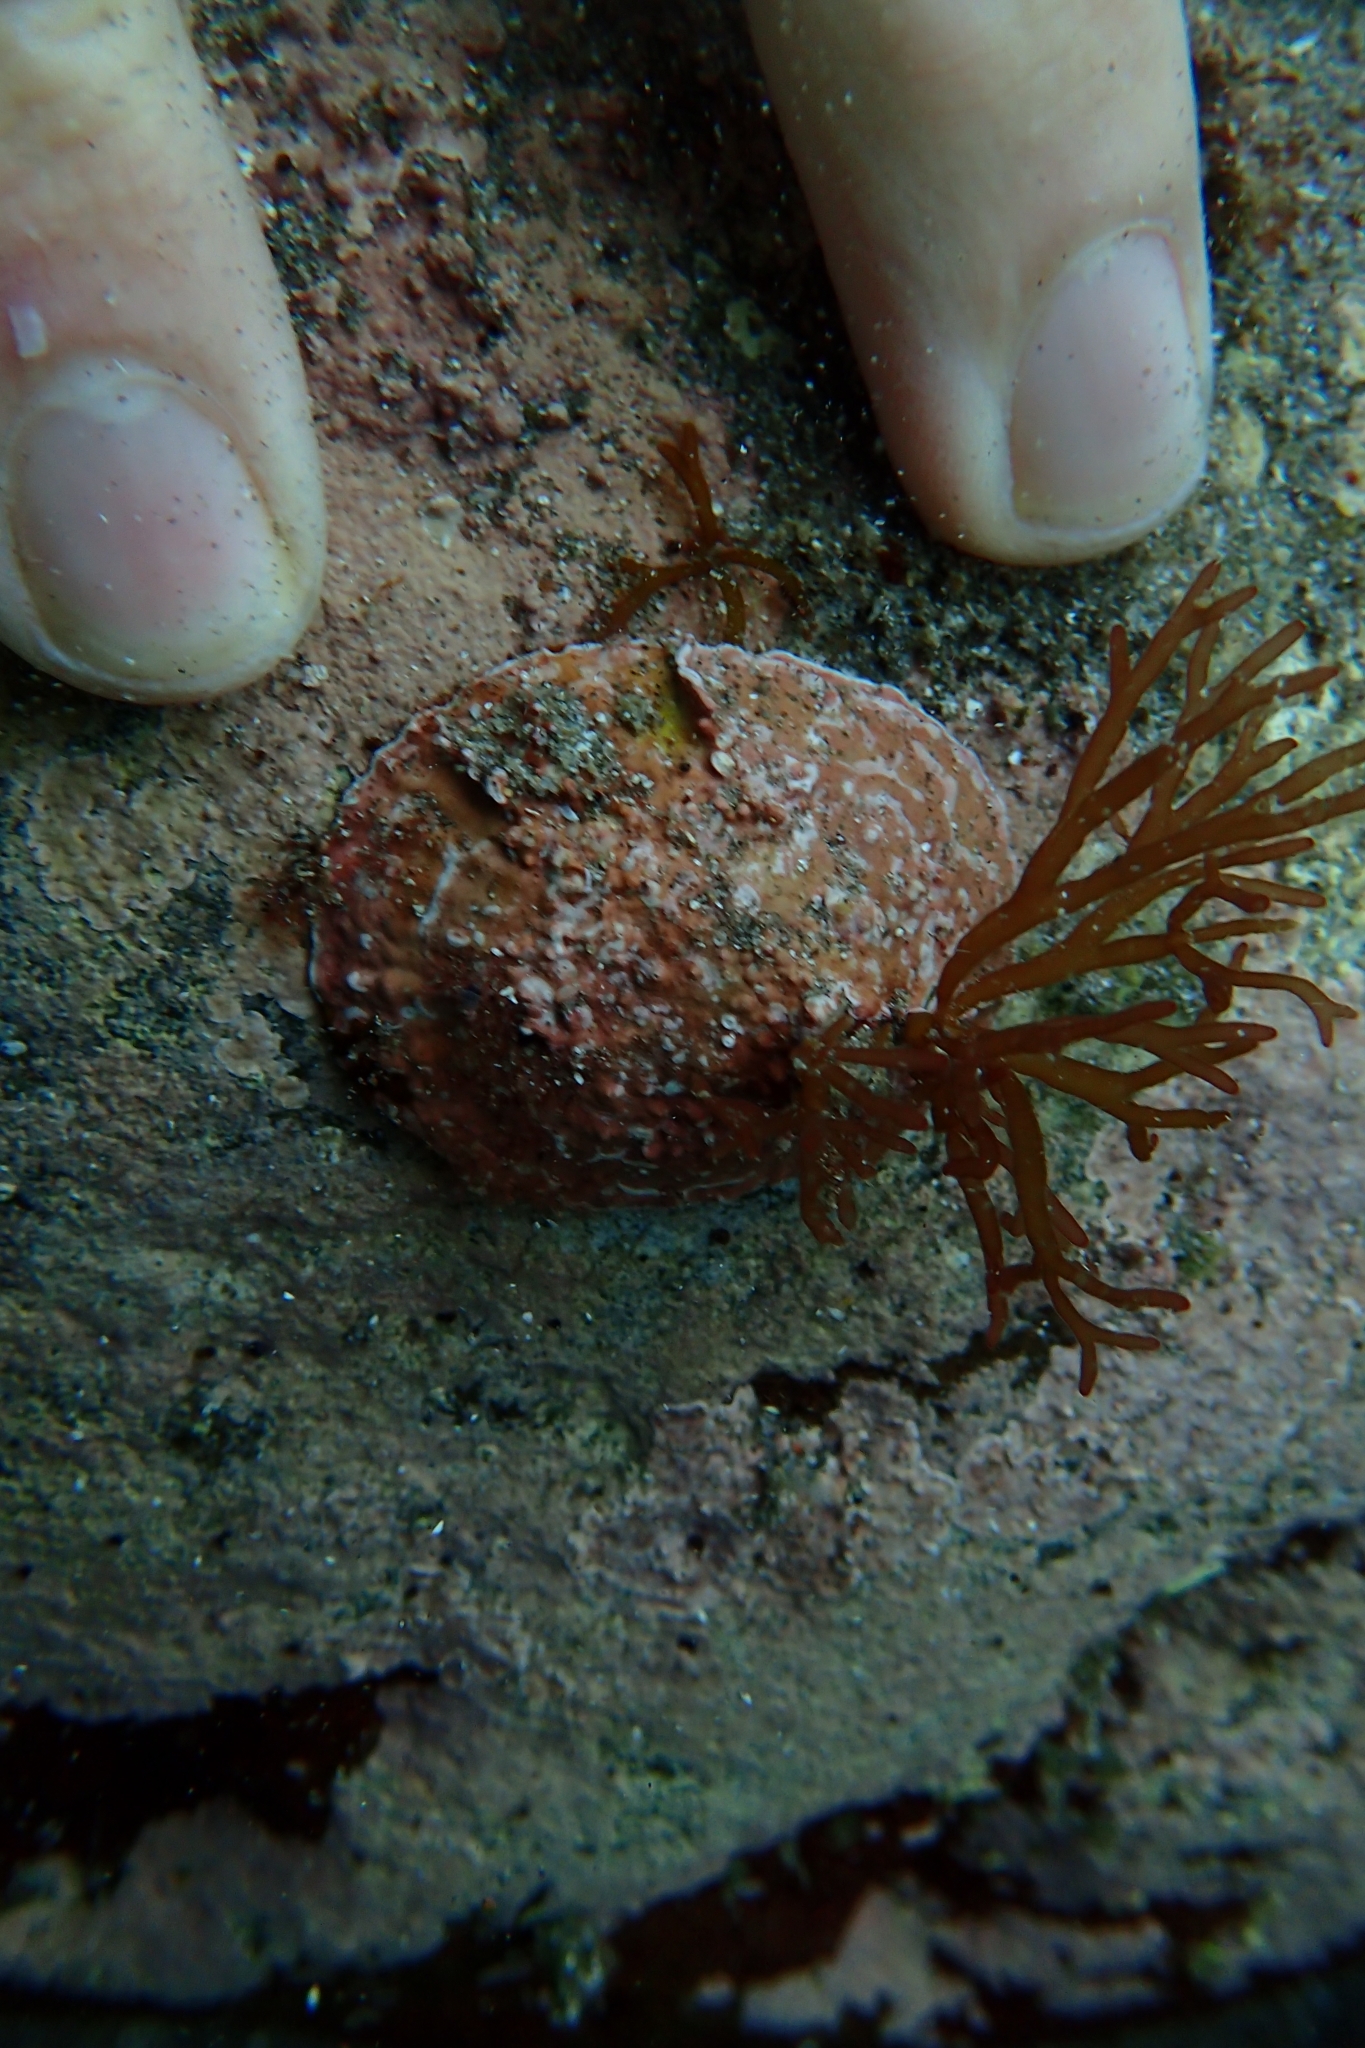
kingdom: Animalia
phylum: Mollusca
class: Gastropoda
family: Nacellidae
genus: Cellana
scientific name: Cellana stellifera
